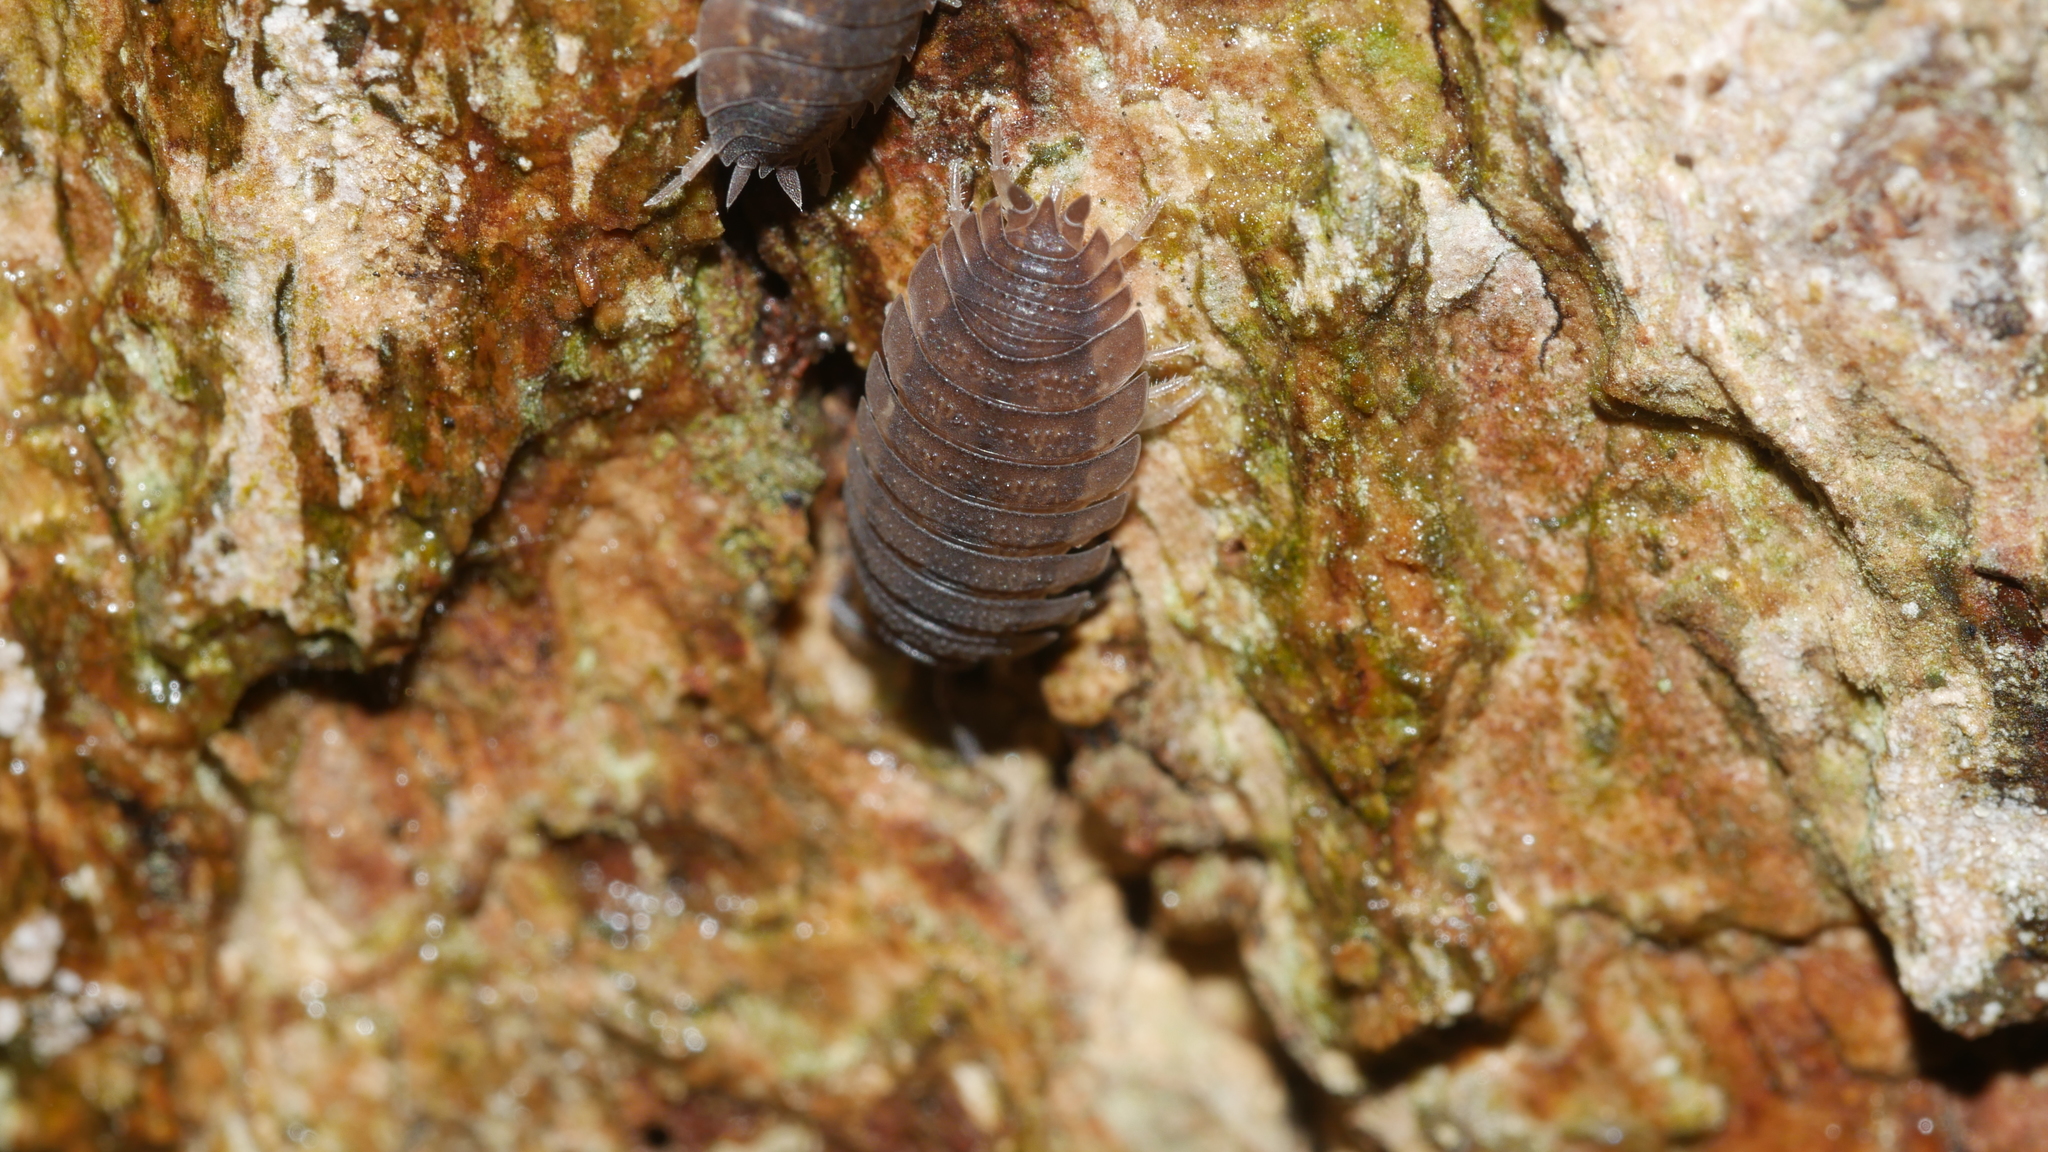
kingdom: Animalia
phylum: Arthropoda
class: Malacostraca
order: Isopoda
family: Porcellionidae
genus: Porcellio
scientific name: Porcellio scaber
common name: Common rough woodlouse
